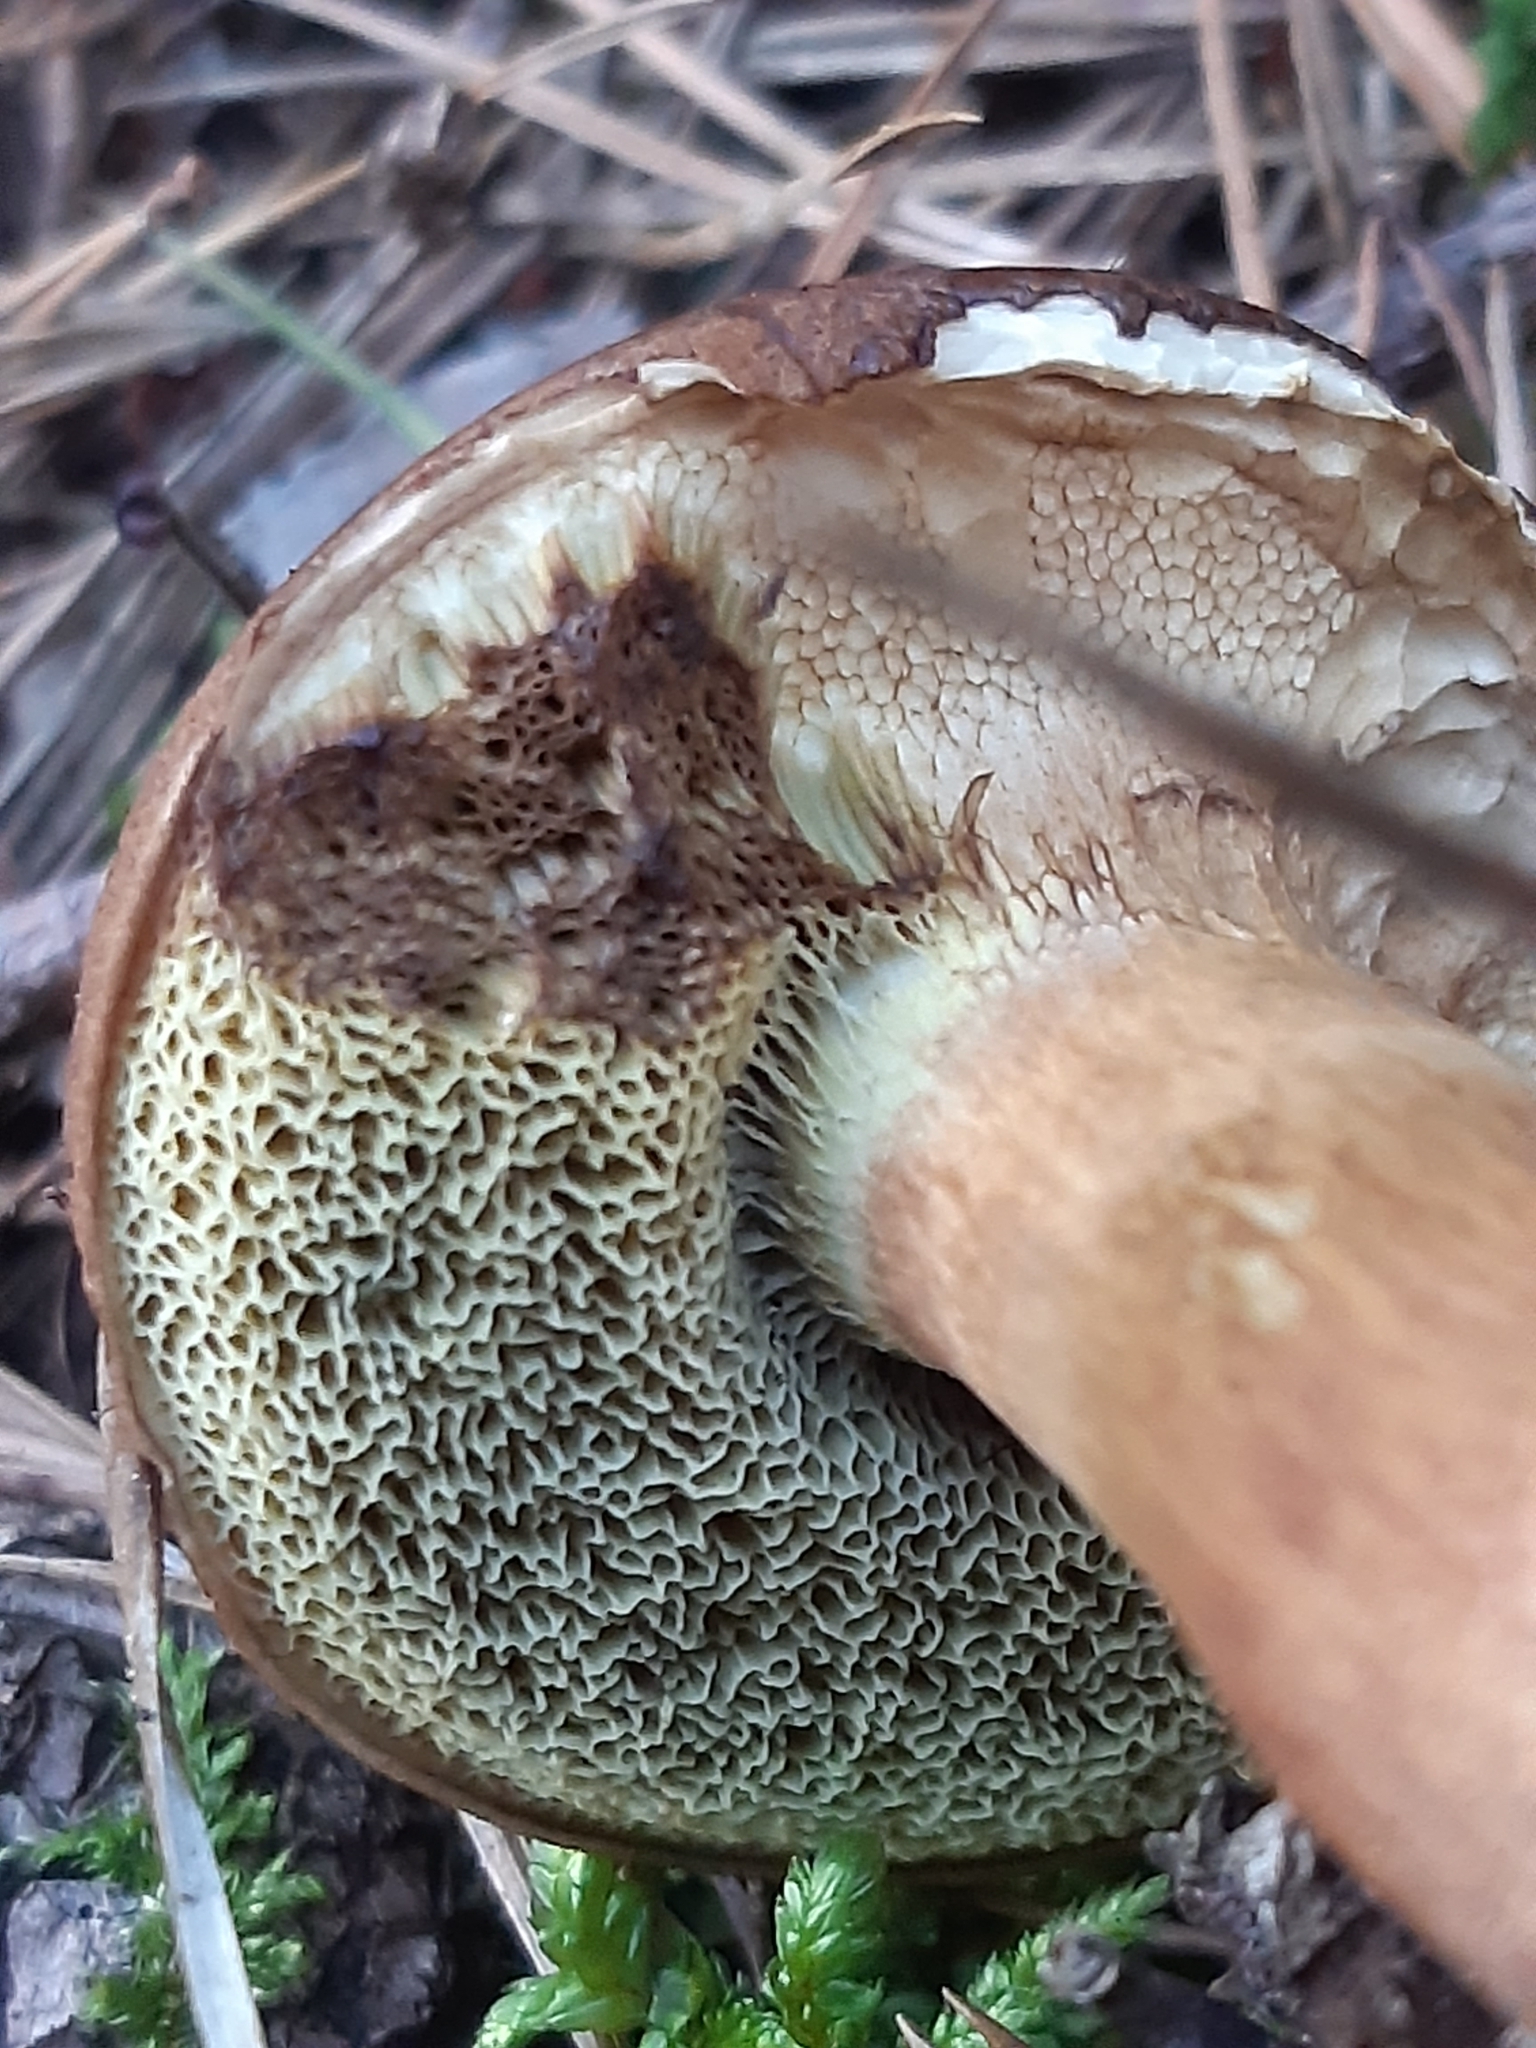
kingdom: Fungi
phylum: Basidiomycota
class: Agaricomycetes
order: Boletales
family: Boletaceae
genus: Imleria
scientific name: Imleria badia
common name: Bay bolete
